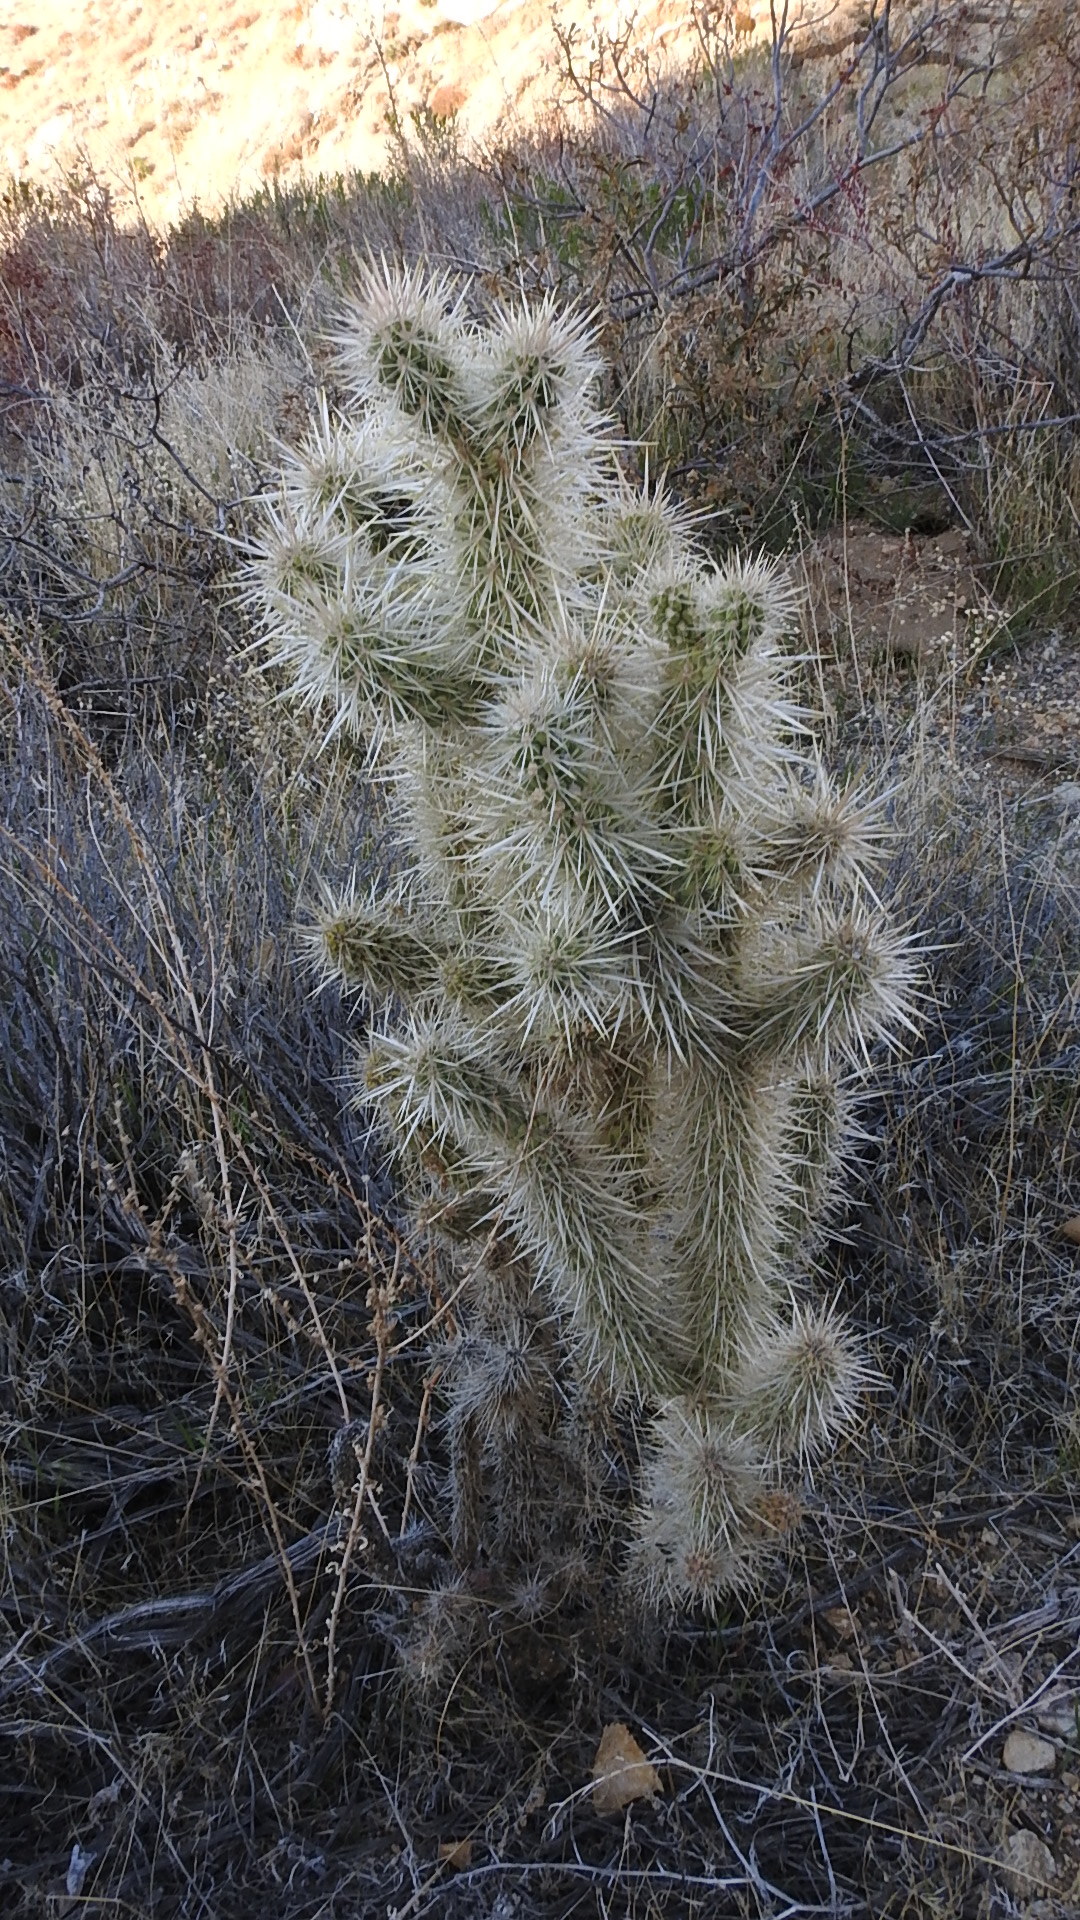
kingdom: Plantae
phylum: Tracheophyta
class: Magnoliopsida
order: Caryophyllales
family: Cactaceae
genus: Cylindropuntia
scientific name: Cylindropuntia echinocarpa
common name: Ground cholla
